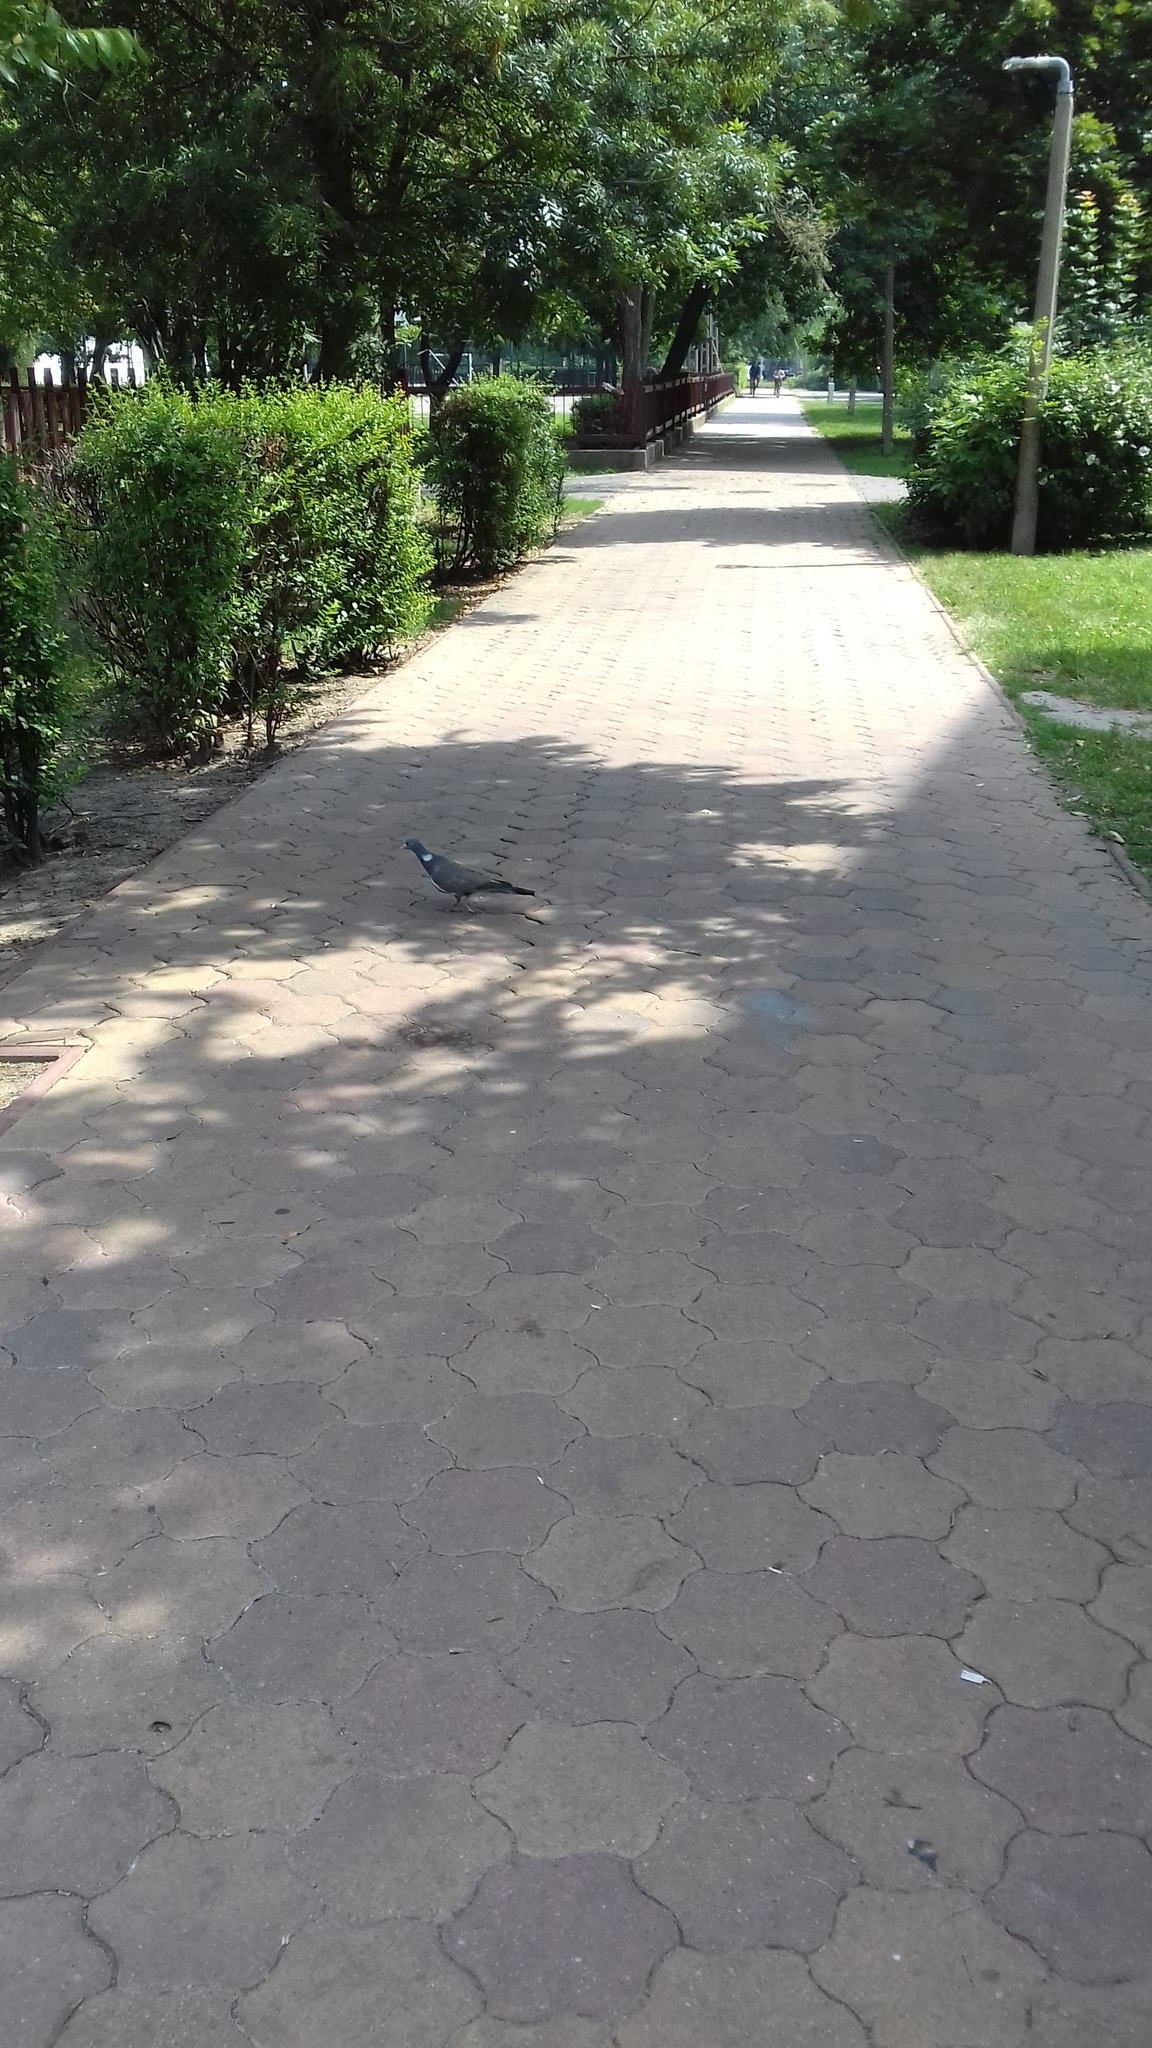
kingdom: Animalia
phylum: Chordata
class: Aves
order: Columbiformes
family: Columbidae
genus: Columba
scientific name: Columba palumbus
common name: Common wood pigeon
